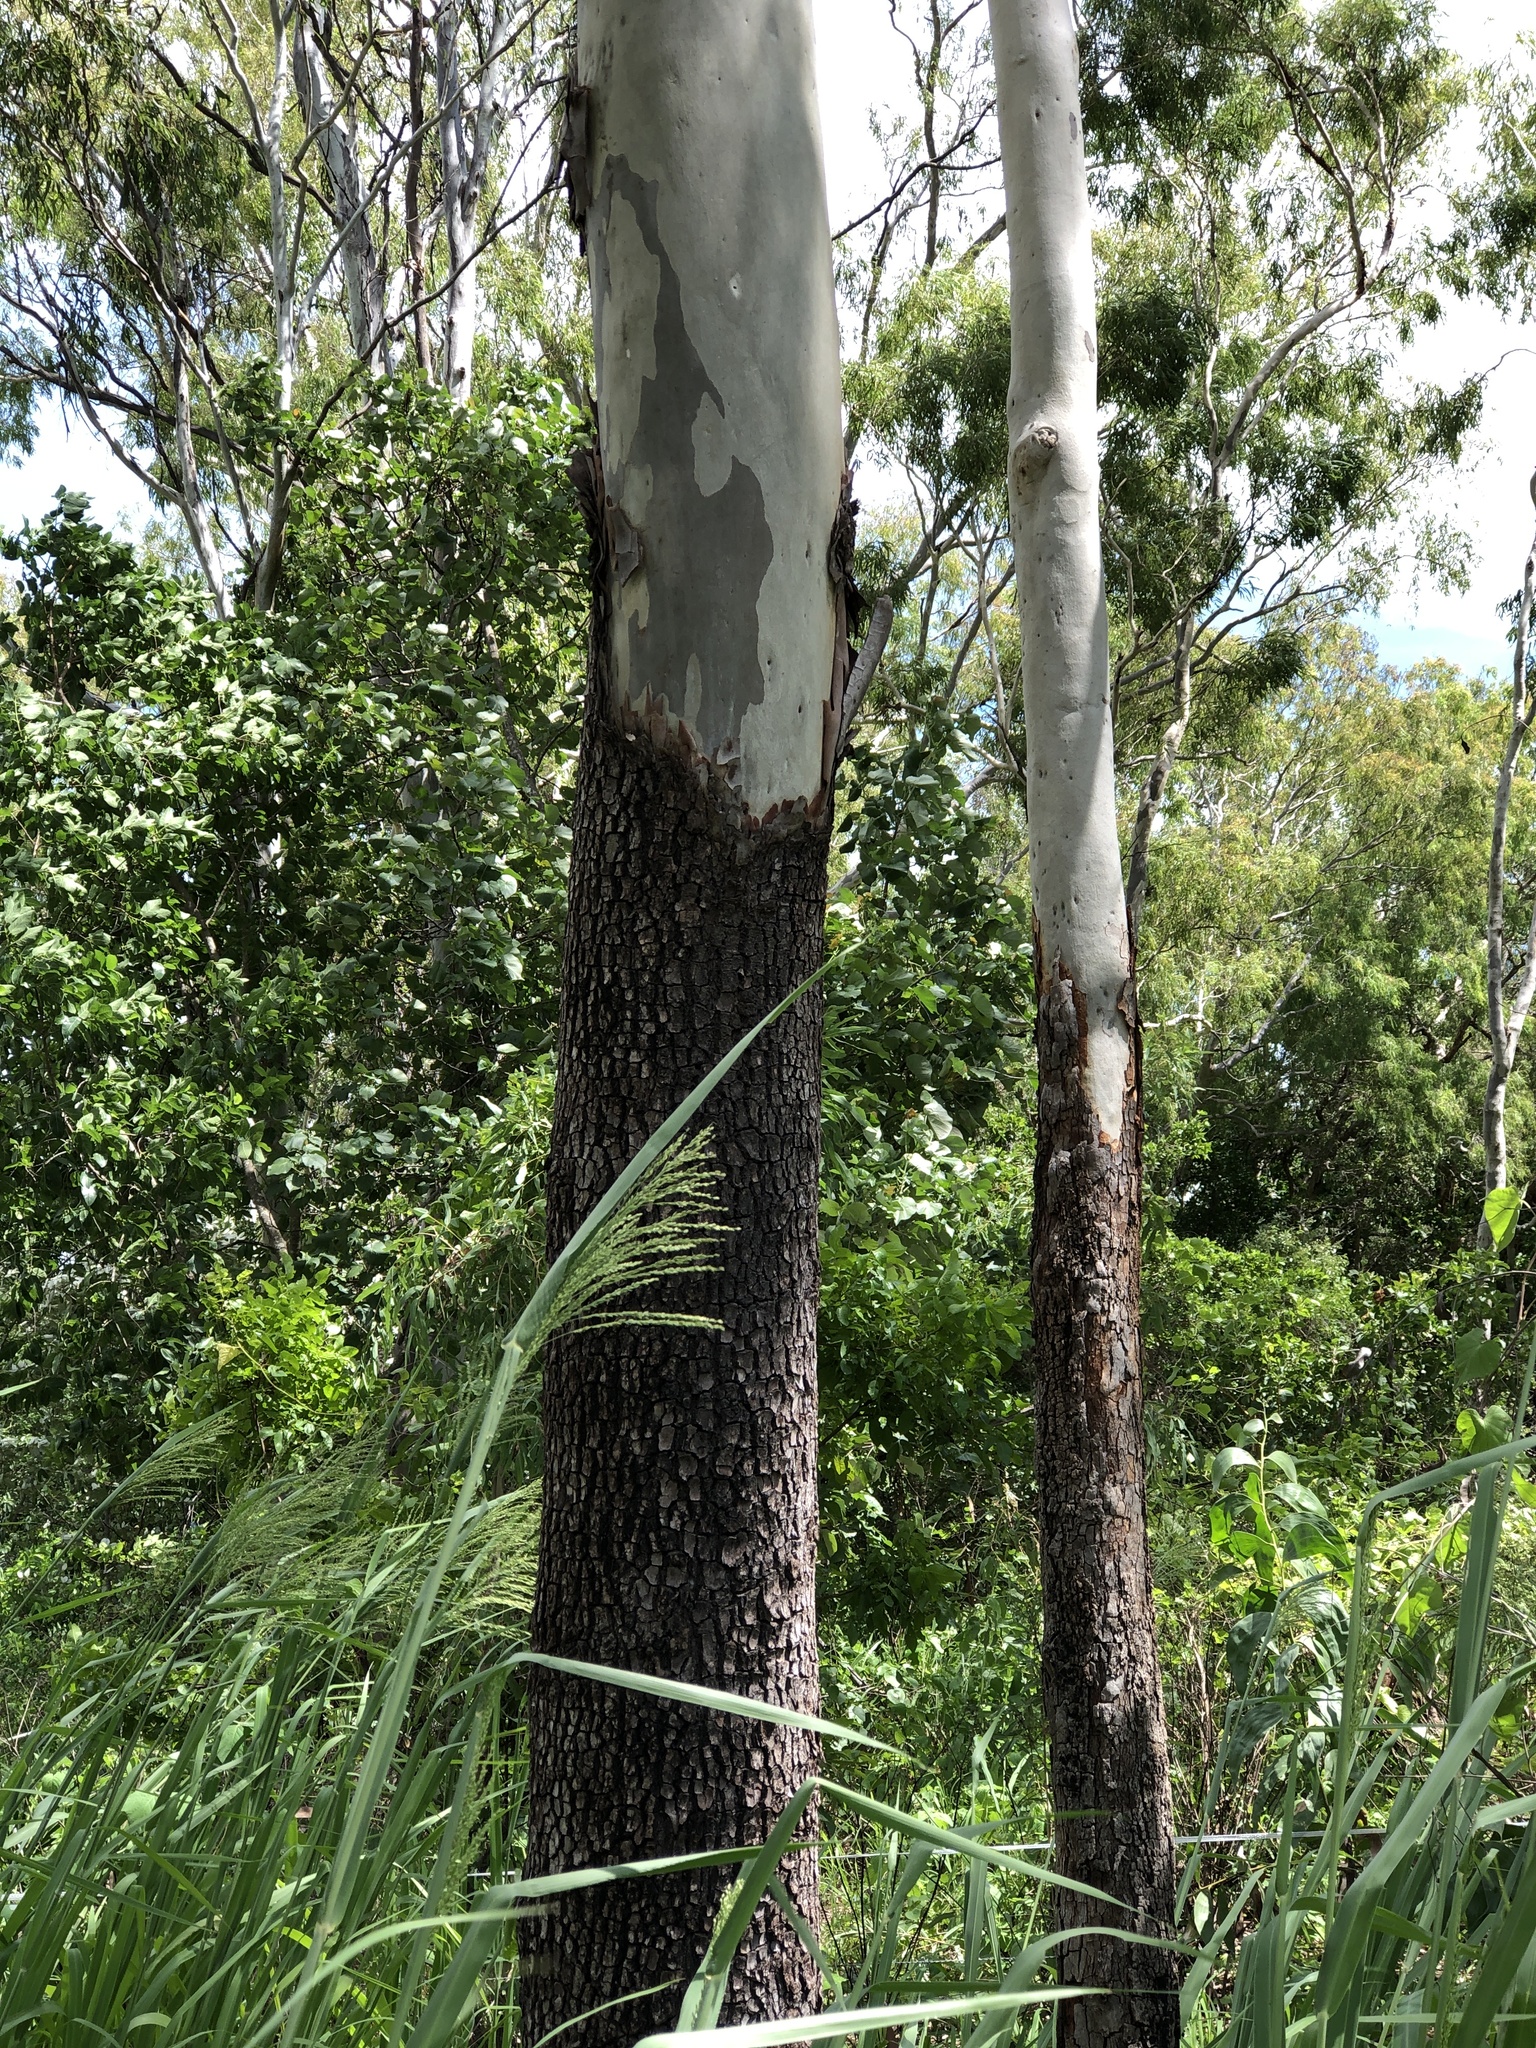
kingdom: Plantae
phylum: Tracheophyta
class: Magnoliopsida
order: Myrtales
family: Myrtaceae
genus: Corymbia
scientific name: Corymbia tessellaris
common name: Carbeen
